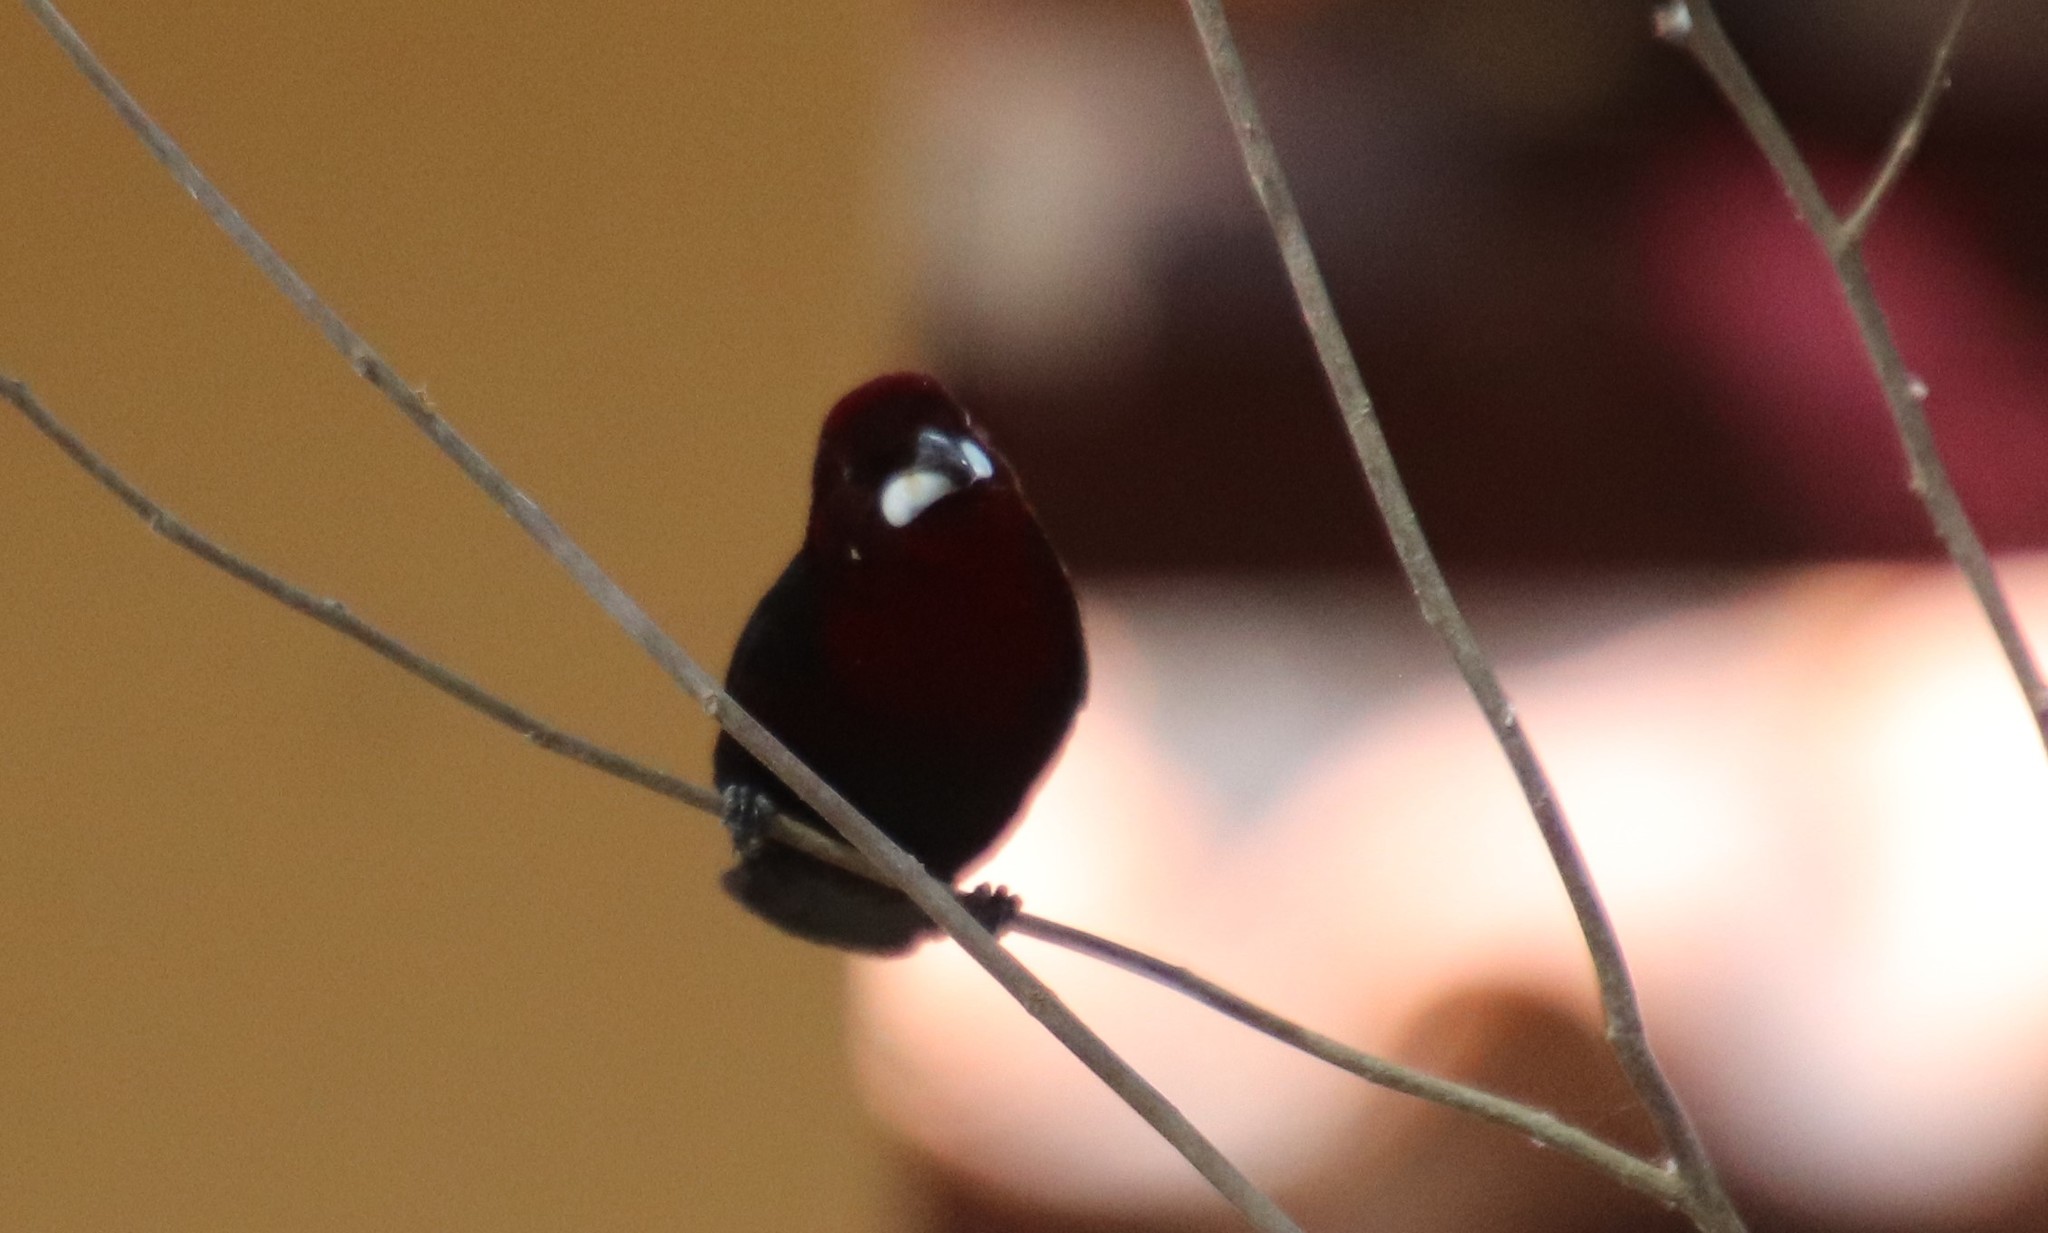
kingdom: Animalia
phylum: Chordata
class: Aves
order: Passeriformes
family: Thraupidae
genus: Ramphocelus
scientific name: Ramphocelus carbo
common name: Silver-beaked tanager
